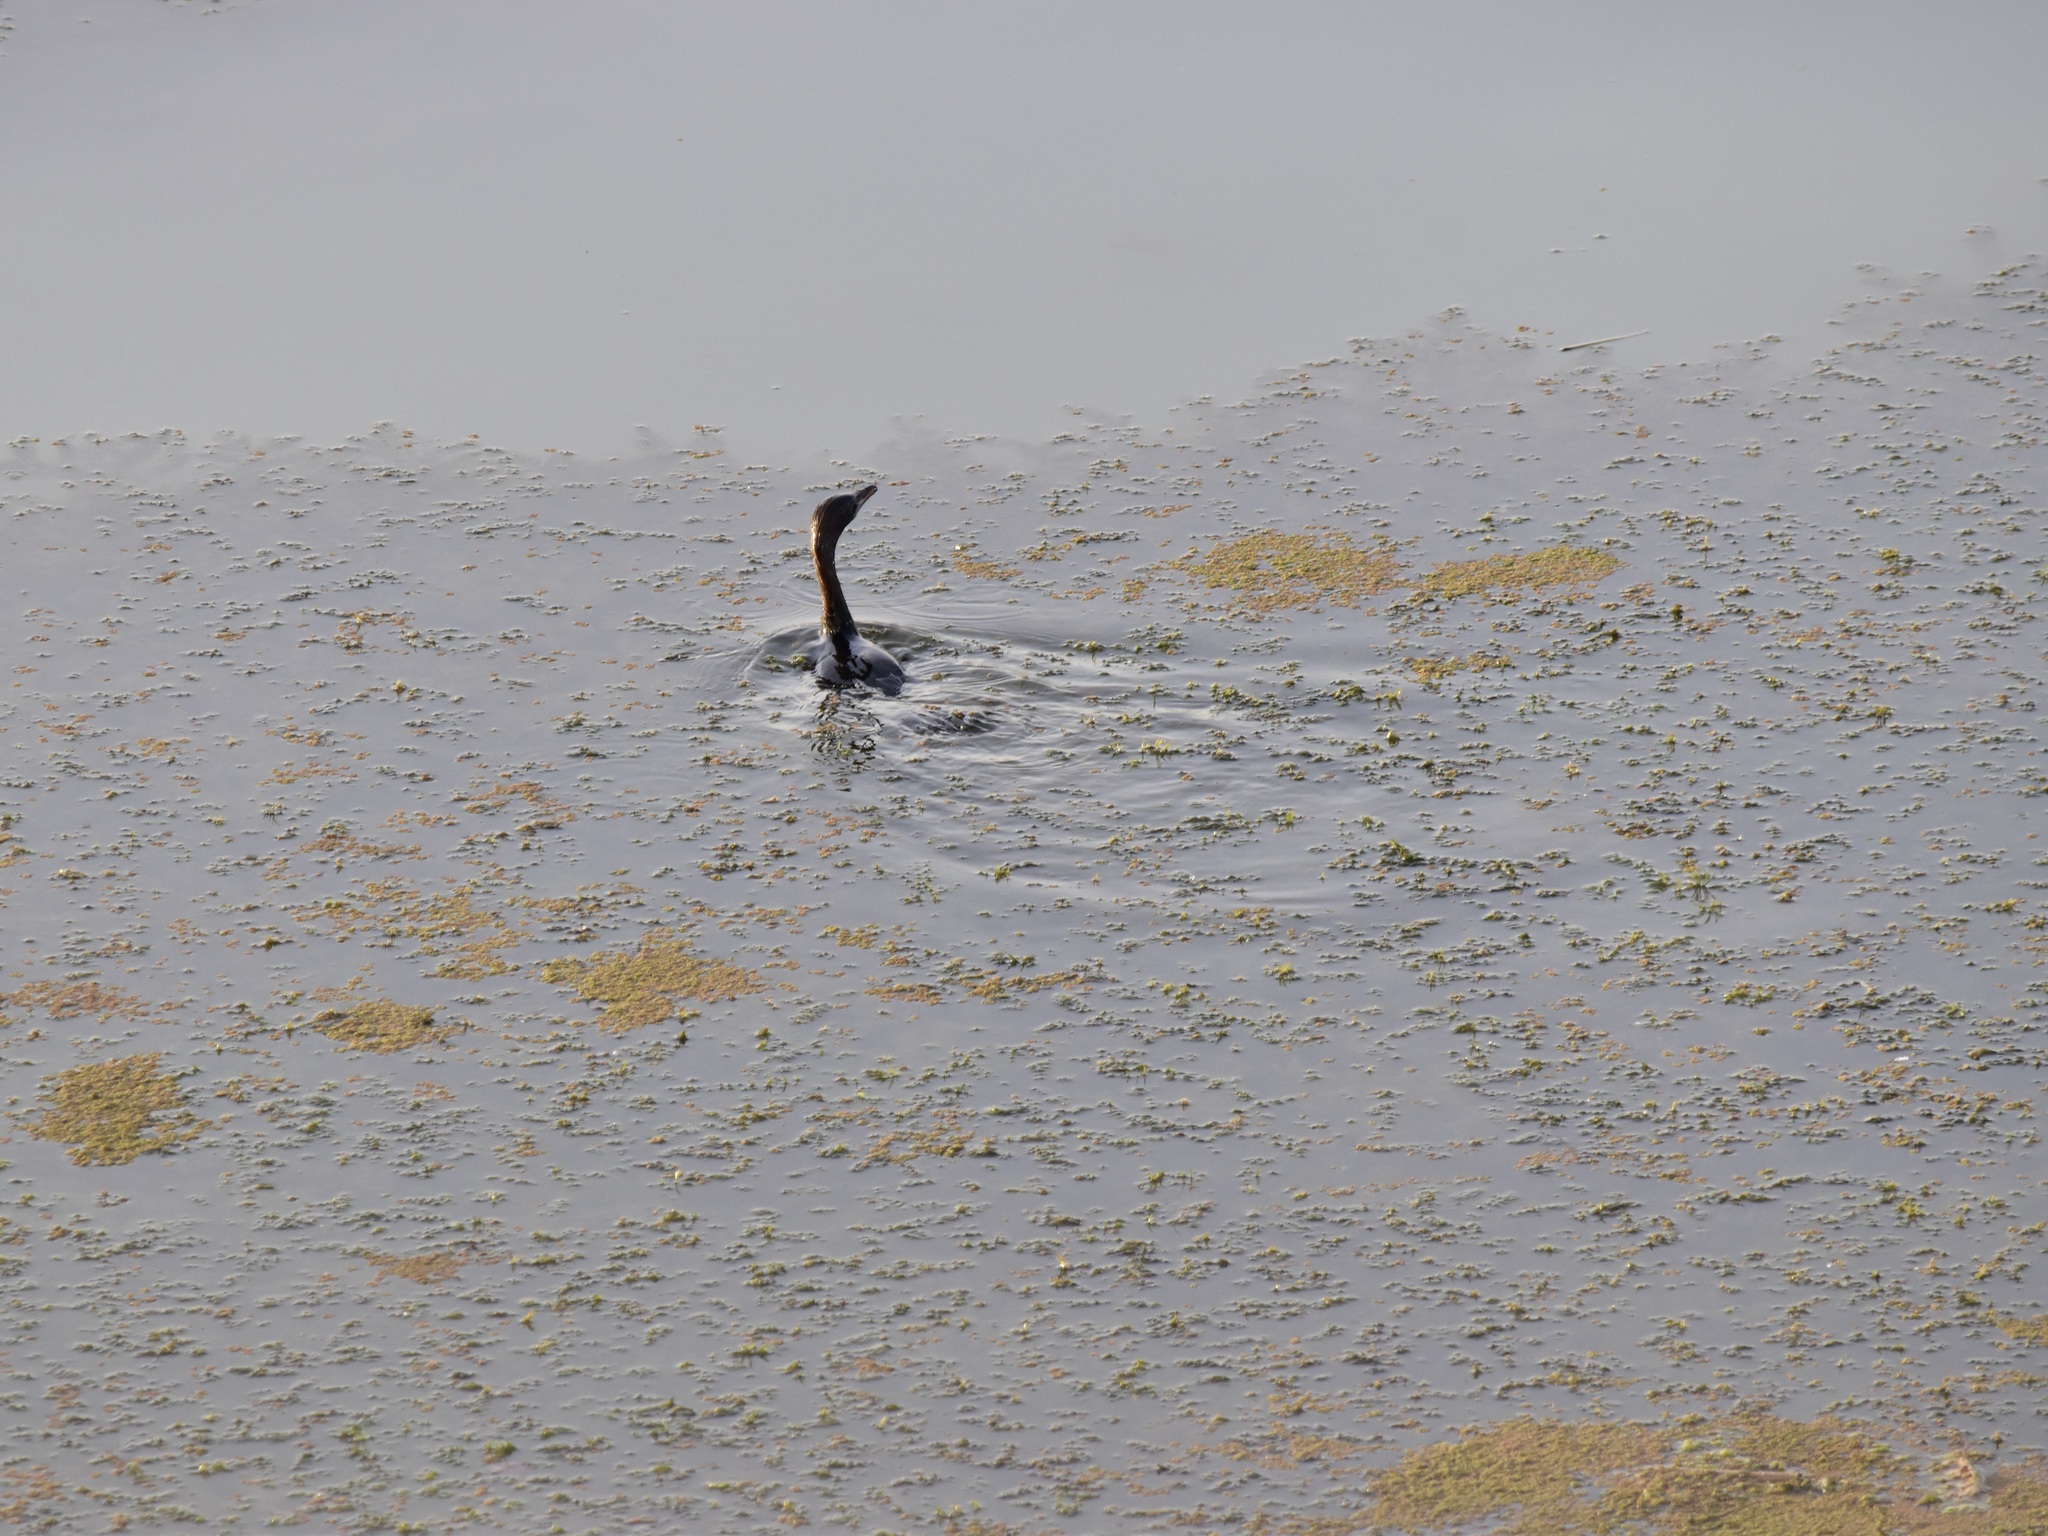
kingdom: Animalia
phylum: Chordata
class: Aves
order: Suliformes
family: Phalacrocoracidae
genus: Microcarbo
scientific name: Microcarbo pygmaeus
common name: Pygmy cormorant
